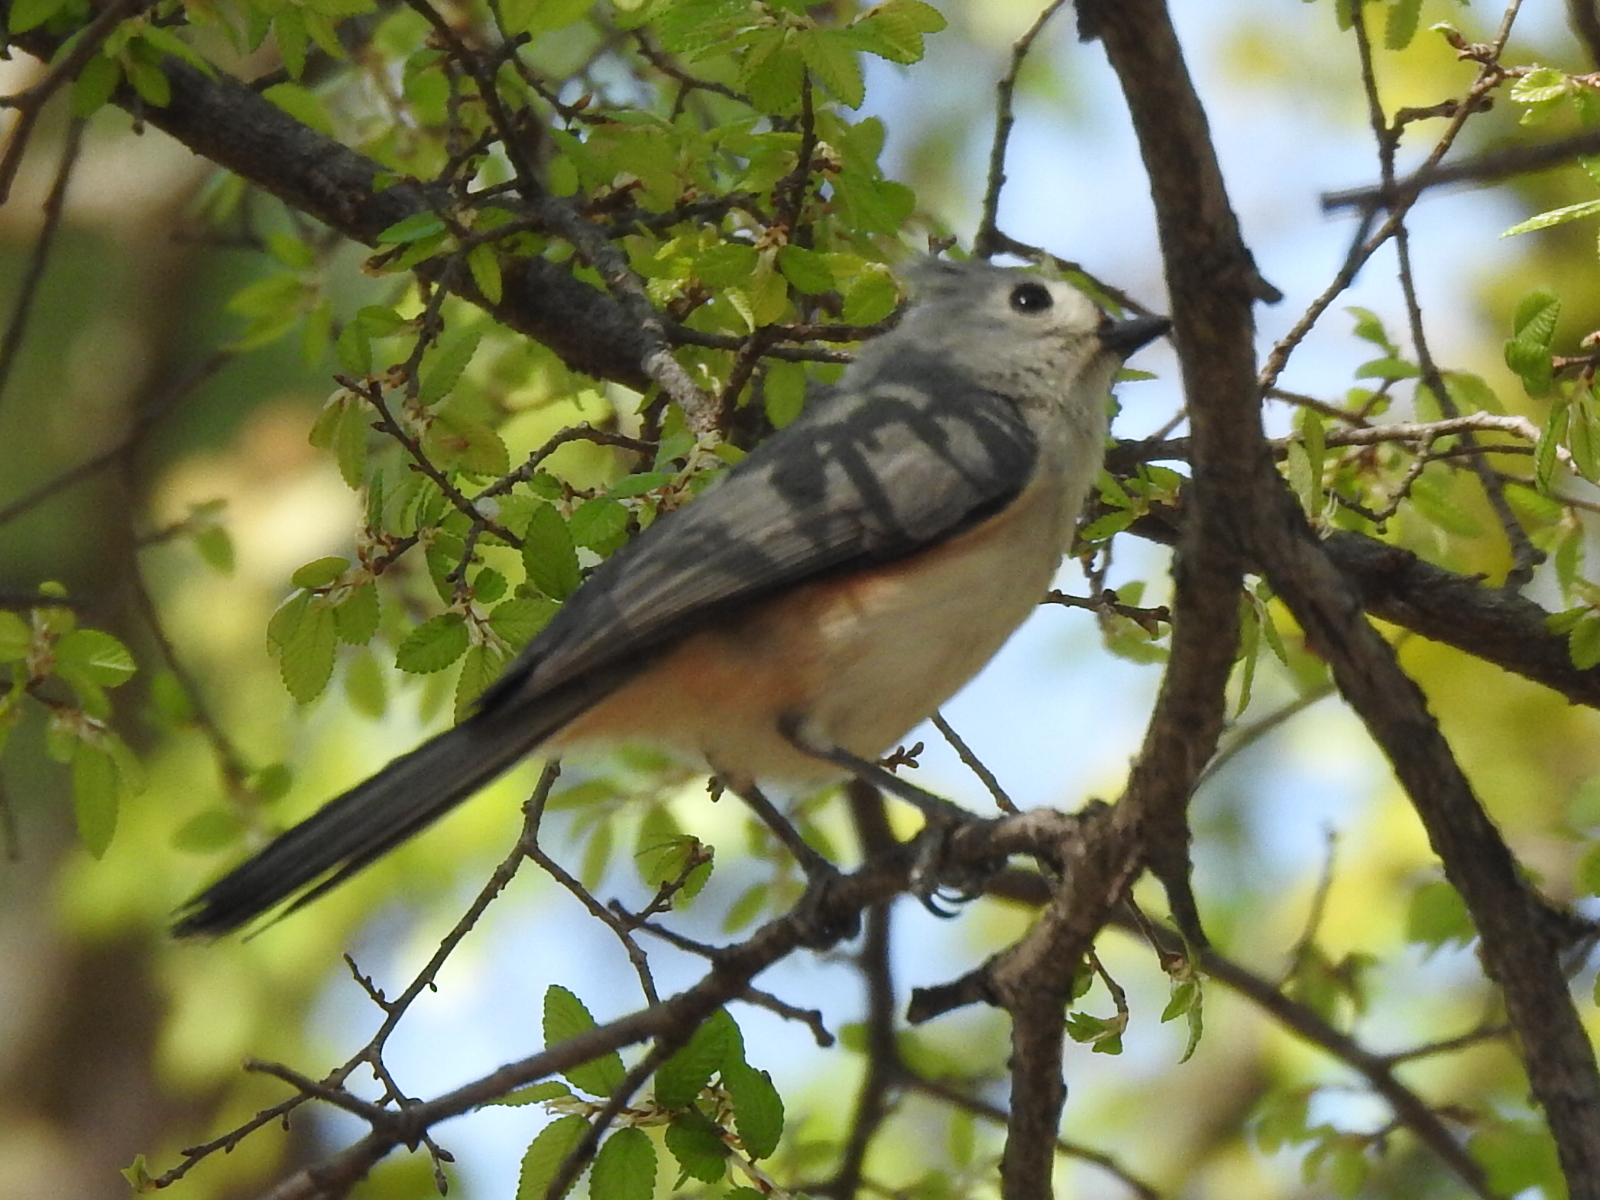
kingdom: Animalia
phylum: Chordata
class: Aves
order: Passeriformes
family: Paridae
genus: Baeolophus
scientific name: Baeolophus bicolor
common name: Tufted titmouse
